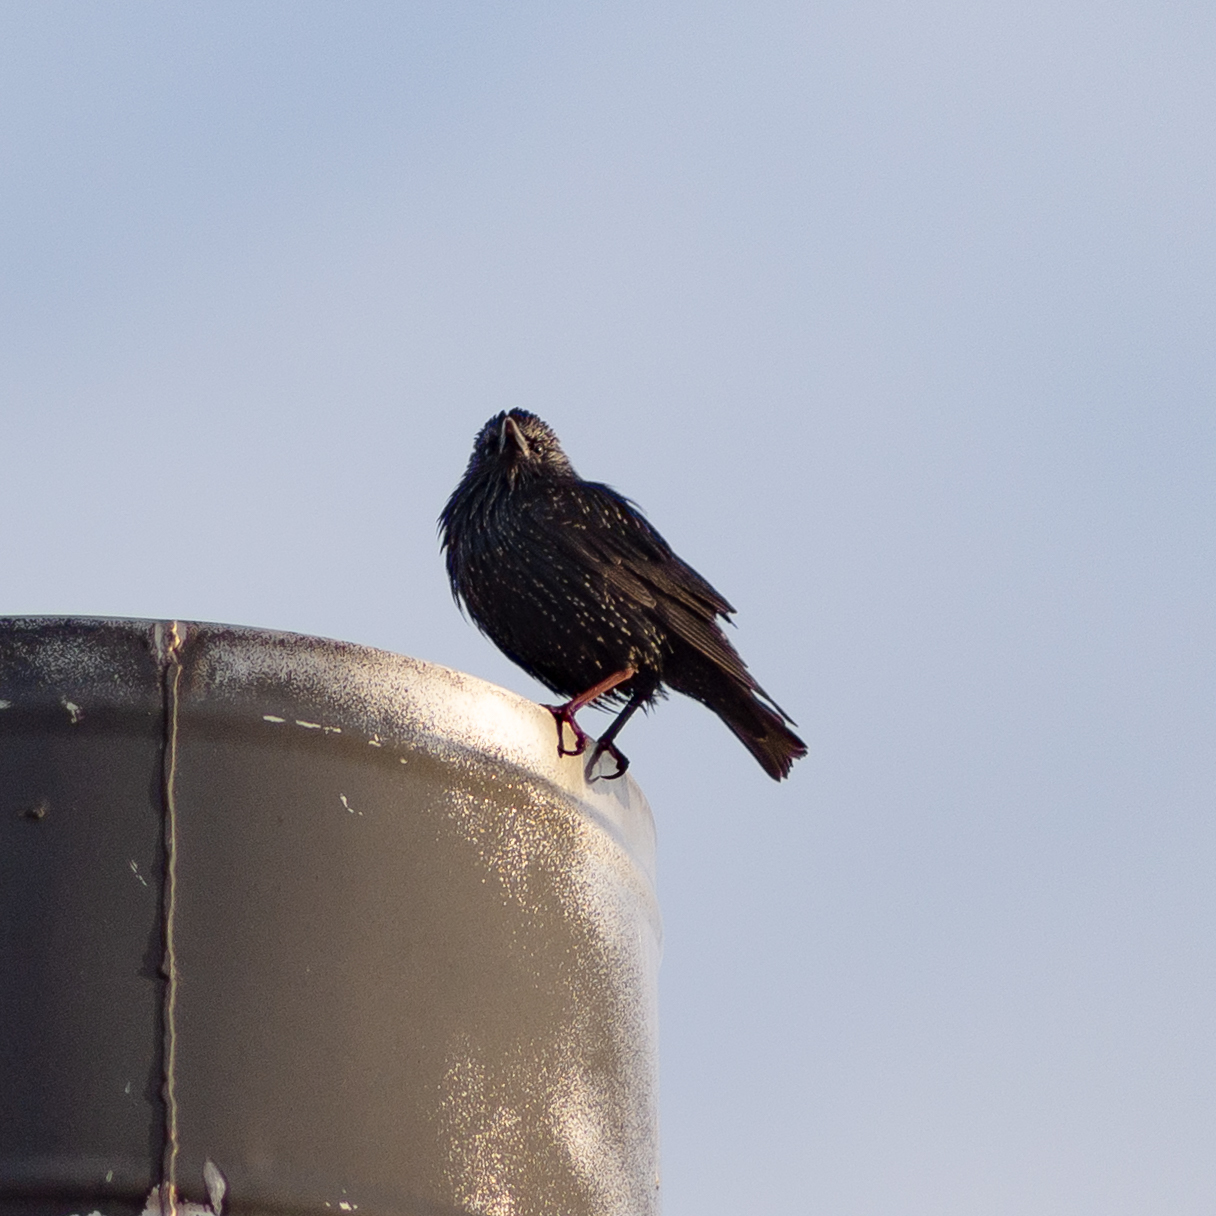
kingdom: Animalia
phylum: Chordata
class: Aves
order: Passeriformes
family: Sturnidae
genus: Sturnus
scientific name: Sturnus unicolor
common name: Spotless starling
